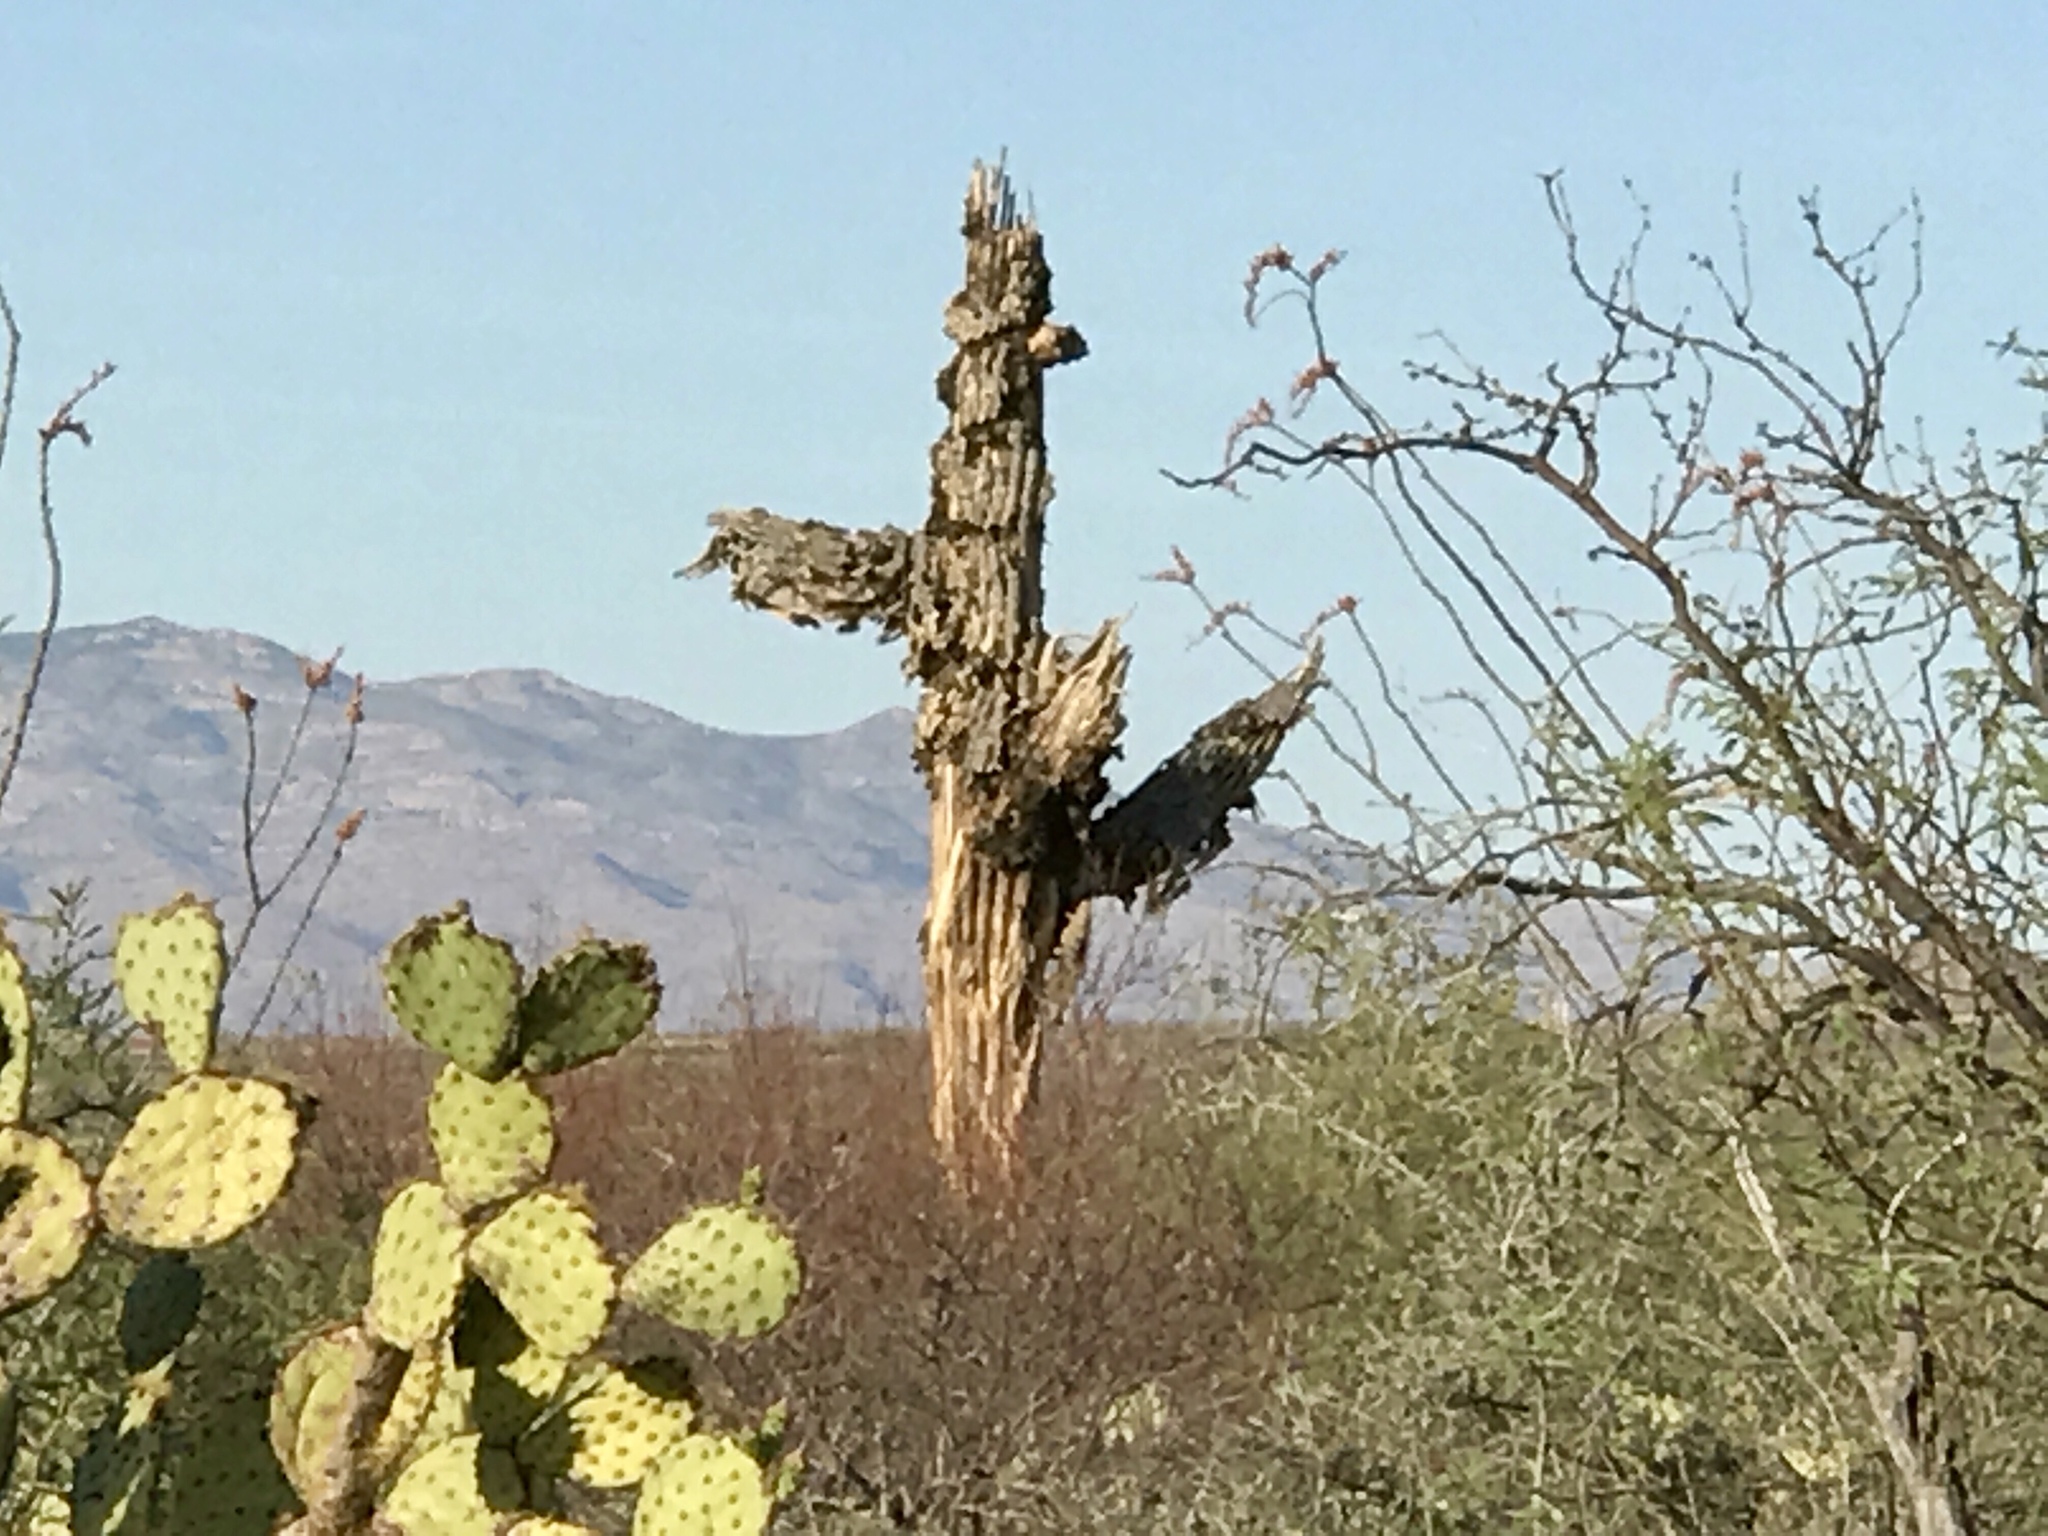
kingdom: Plantae
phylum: Tracheophyta
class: Magnoliopsida
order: Caryophyllales
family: Cactaceae
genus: Carnegiea
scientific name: Carnegiea gigantea
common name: Saguaro
